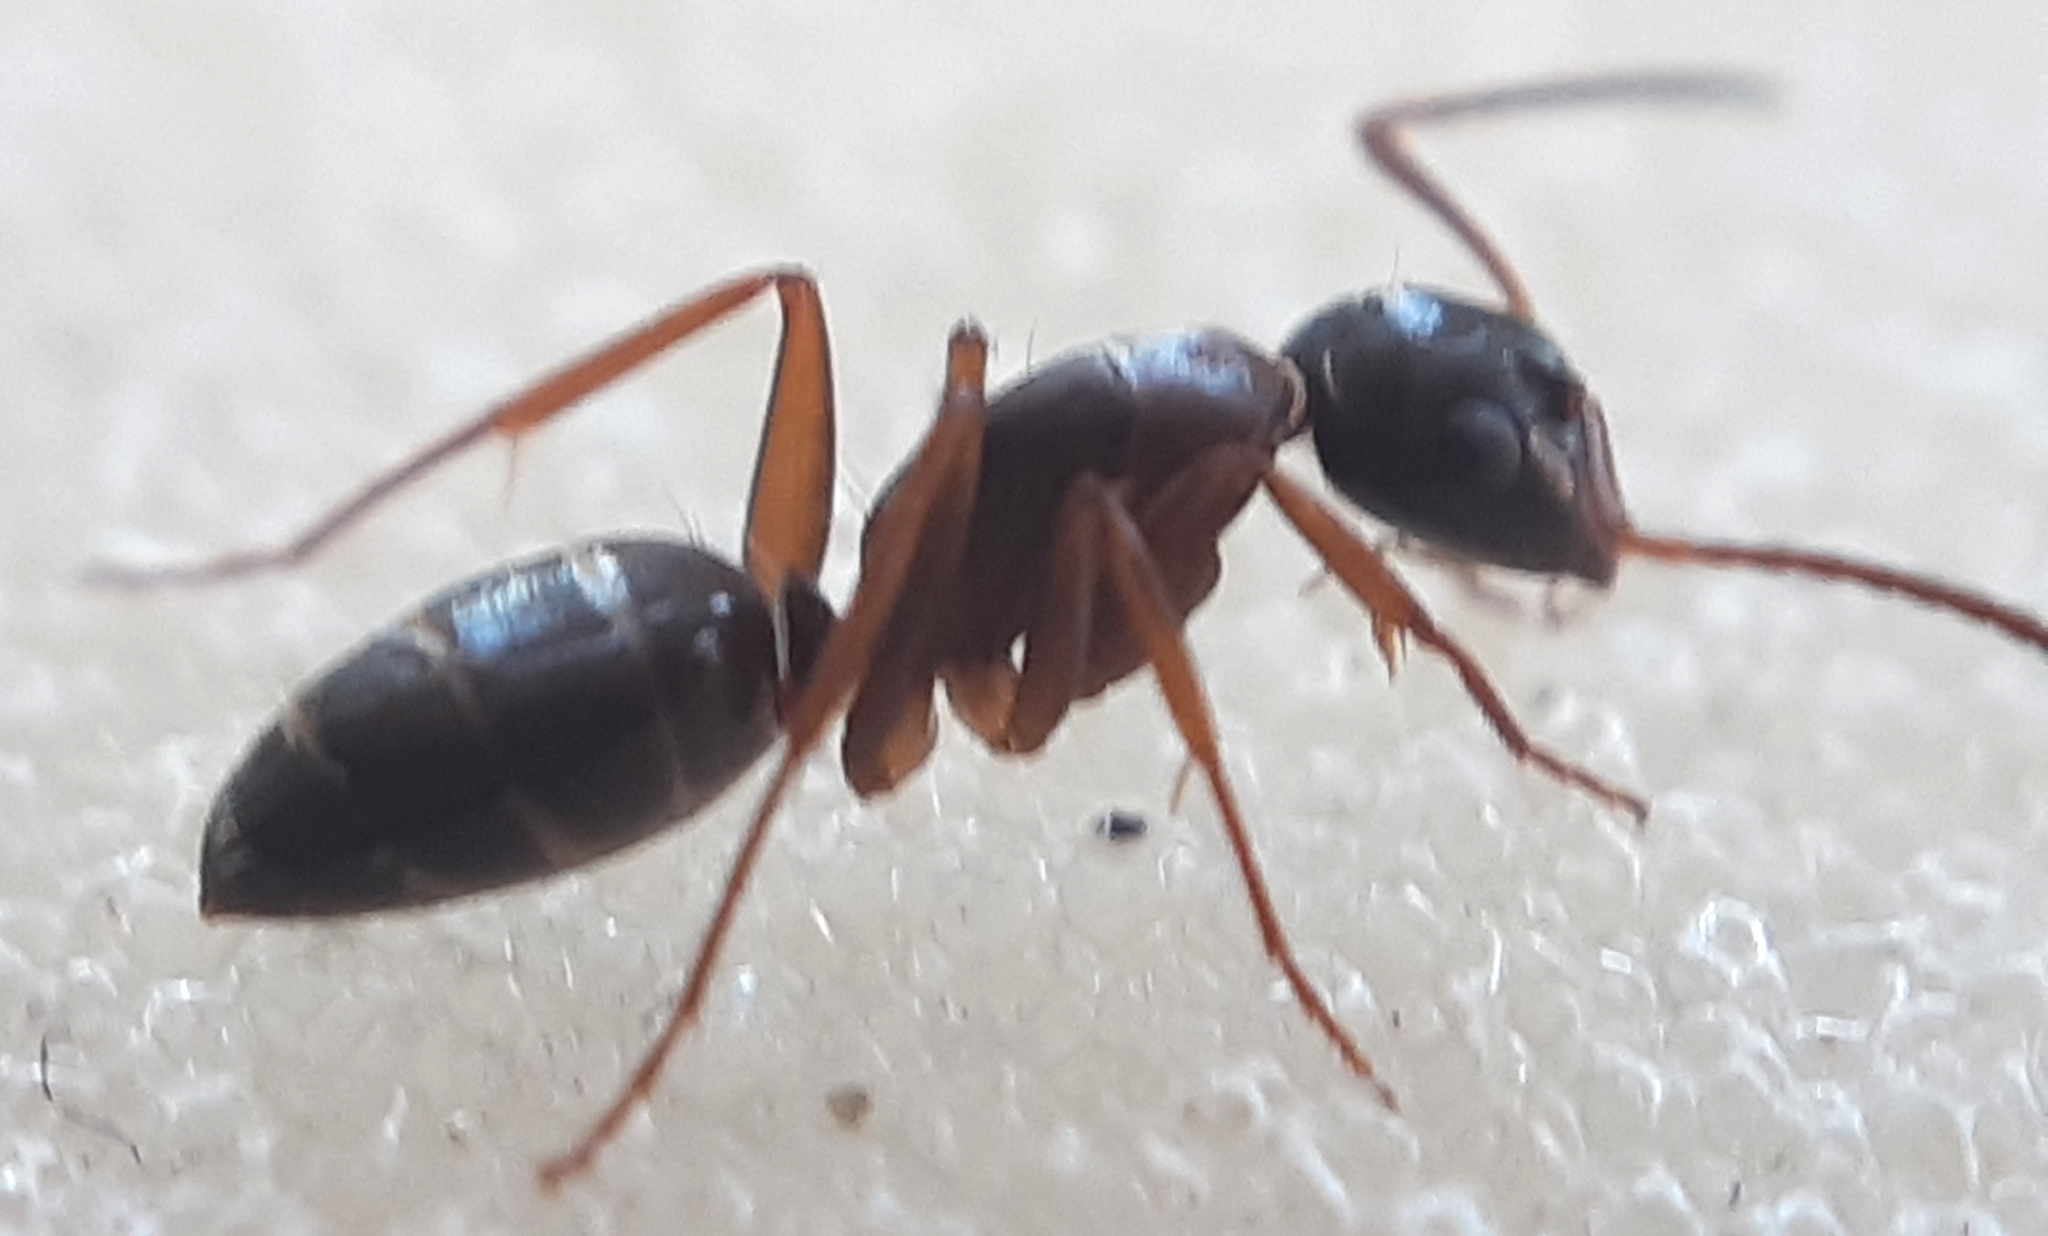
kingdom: Animalia
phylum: Arthropoda
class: Insecta
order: Hymenoptera
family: Formicidae
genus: Camponotus
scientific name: Camponotus fallax
